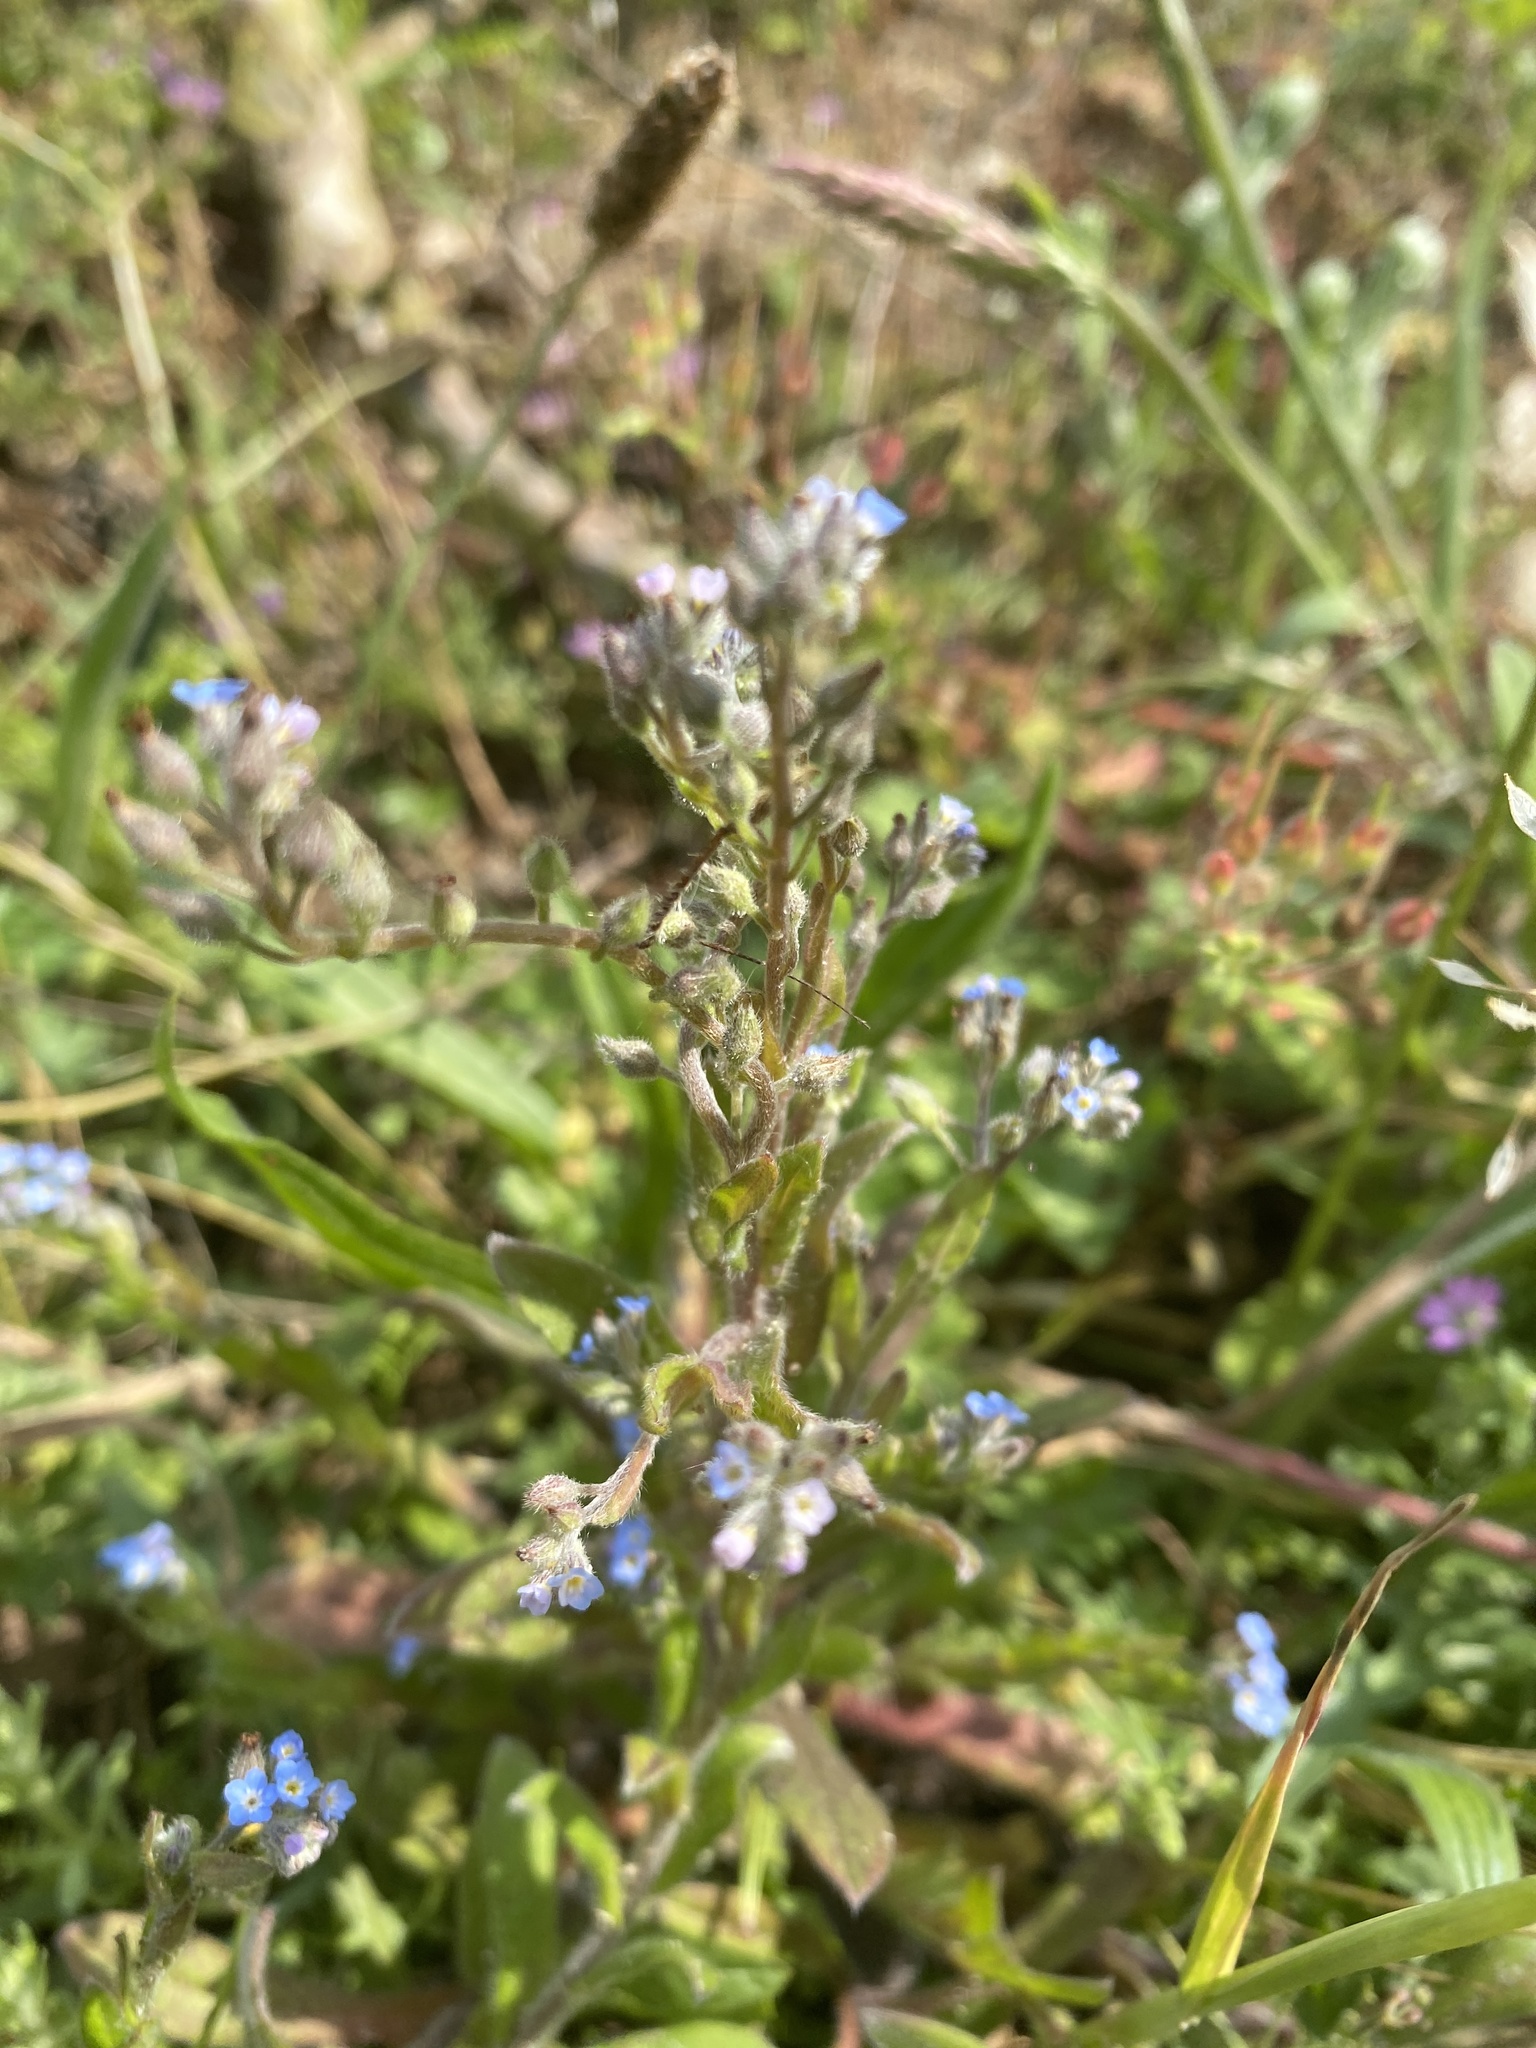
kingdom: Plantae
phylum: Tracheophyta
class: Magnoliopsida
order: Boraginales
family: Boraginaceae
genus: Myosotis
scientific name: Myosotis arvensis
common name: Field forget-me-not
